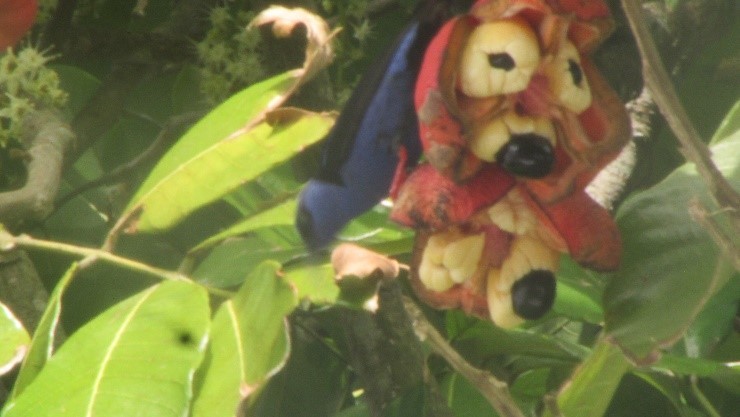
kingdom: Animalia
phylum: Chordata
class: Aves
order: Passeriformes
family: Thraupidae
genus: Cyanerpes
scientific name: Cyanerpes cyaneus
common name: Red-legged honeycreeper
